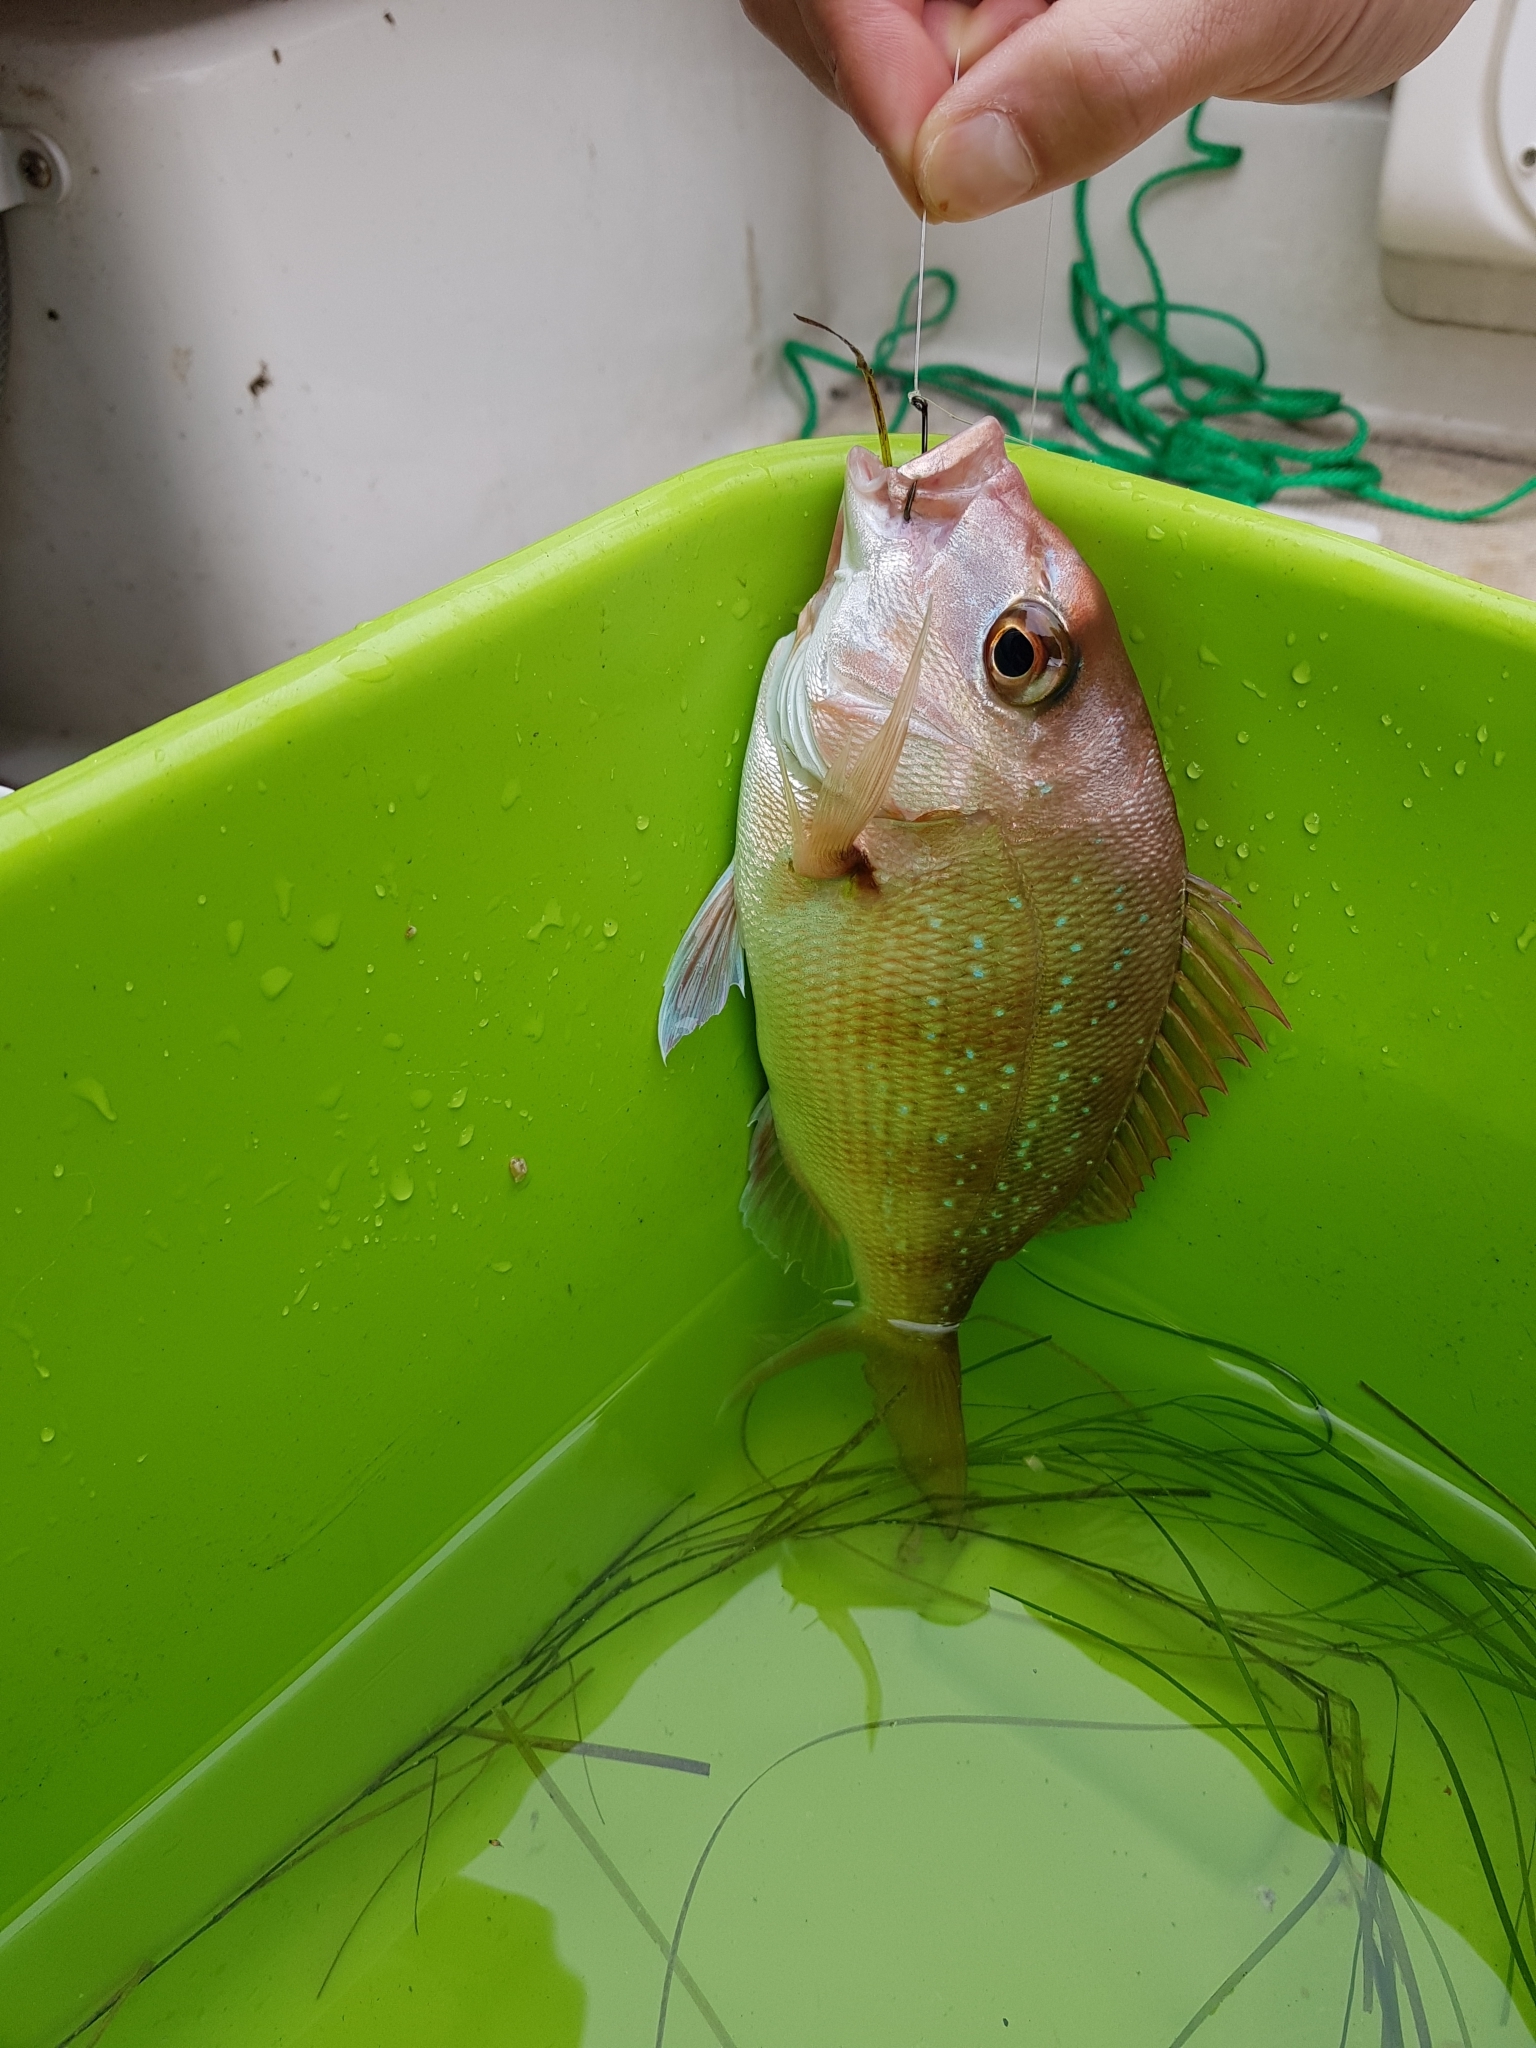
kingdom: Animalia
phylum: Chordata
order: Perciformes
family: Sparidae
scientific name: Sparidae
